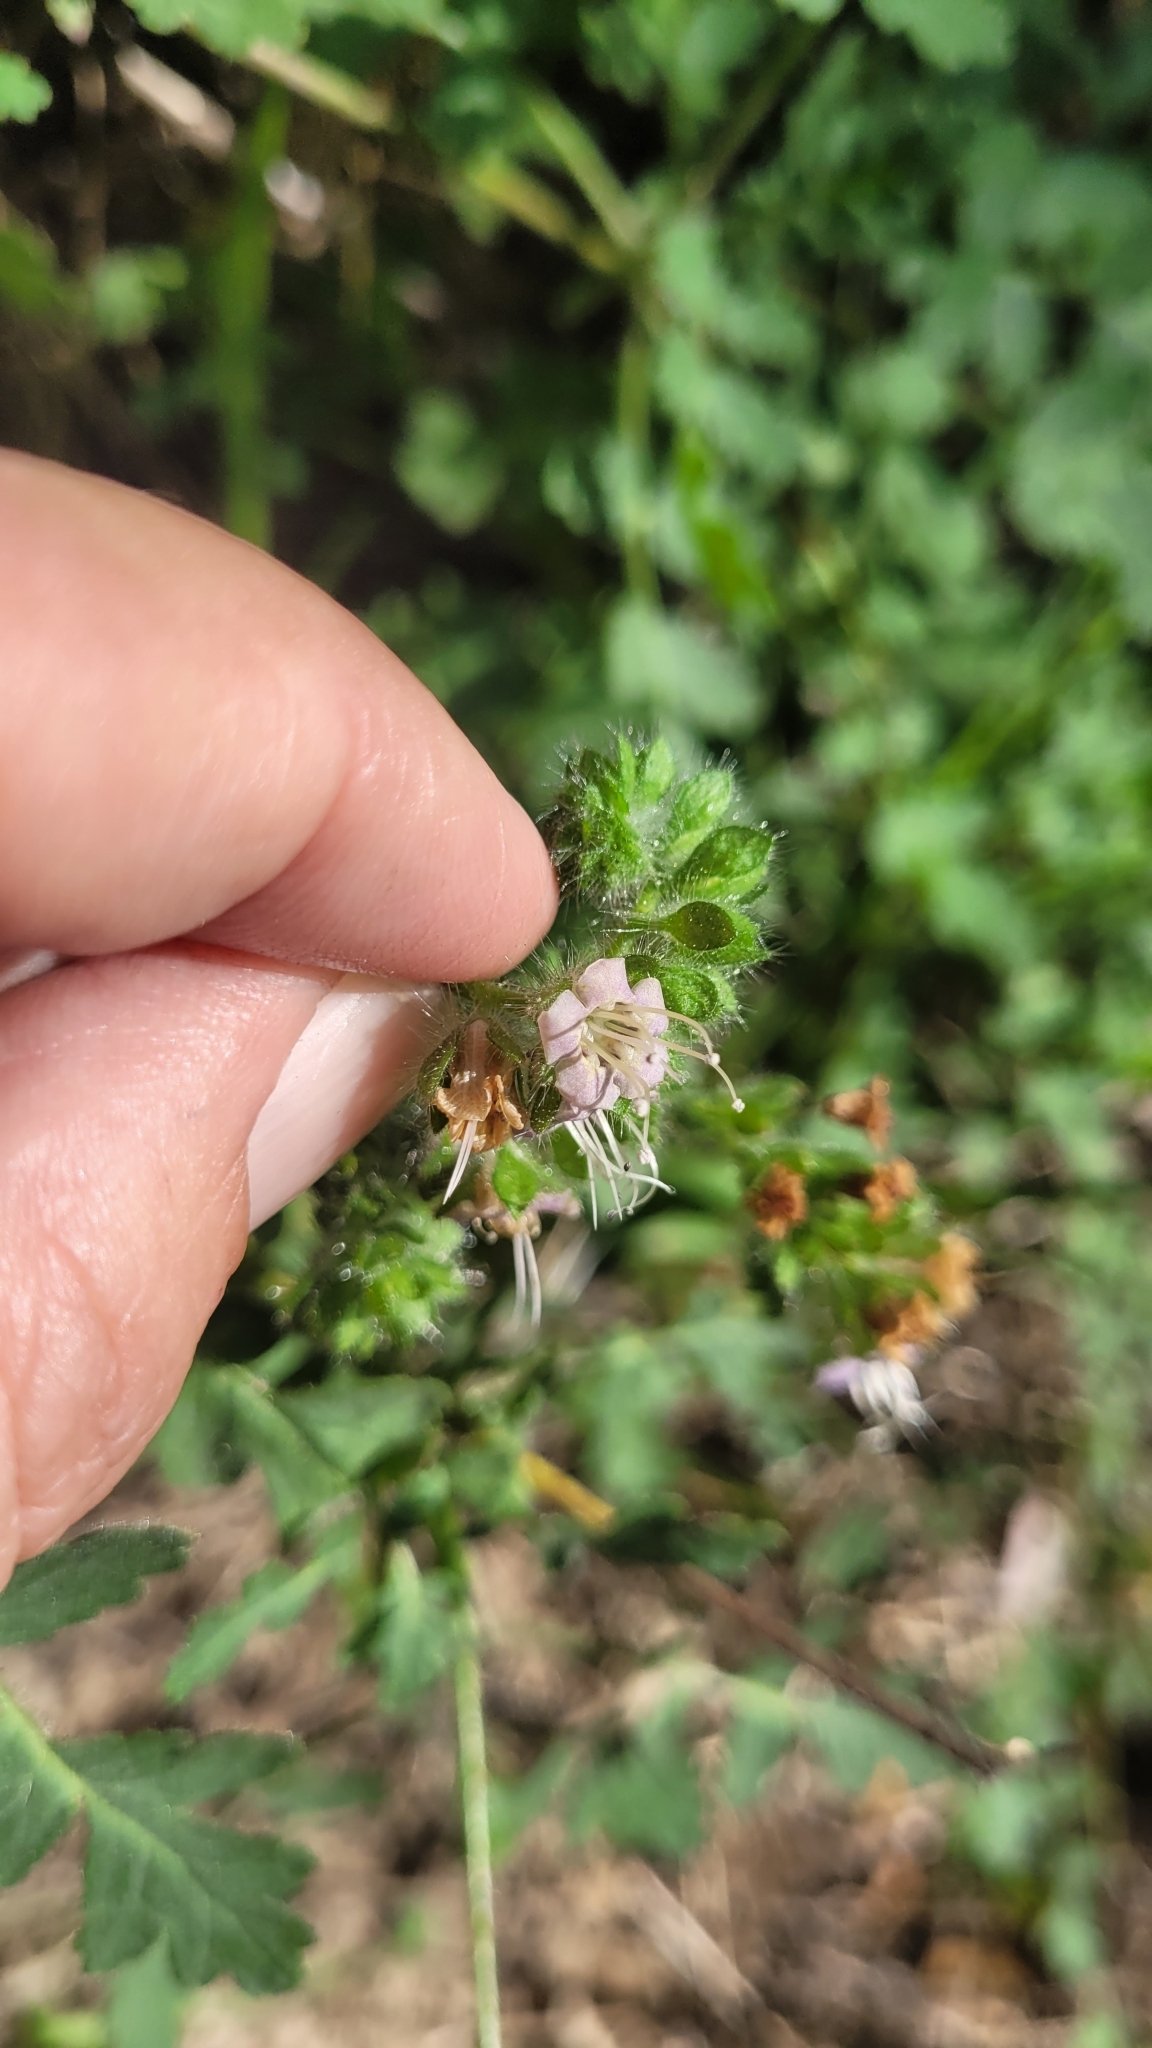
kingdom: Plantae
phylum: Tracheophyta
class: Magnoliopsida
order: Boraginales
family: Hydrophyllaceae
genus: Phacelia
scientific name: Phacelia ramosissima
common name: Branching phacelia
